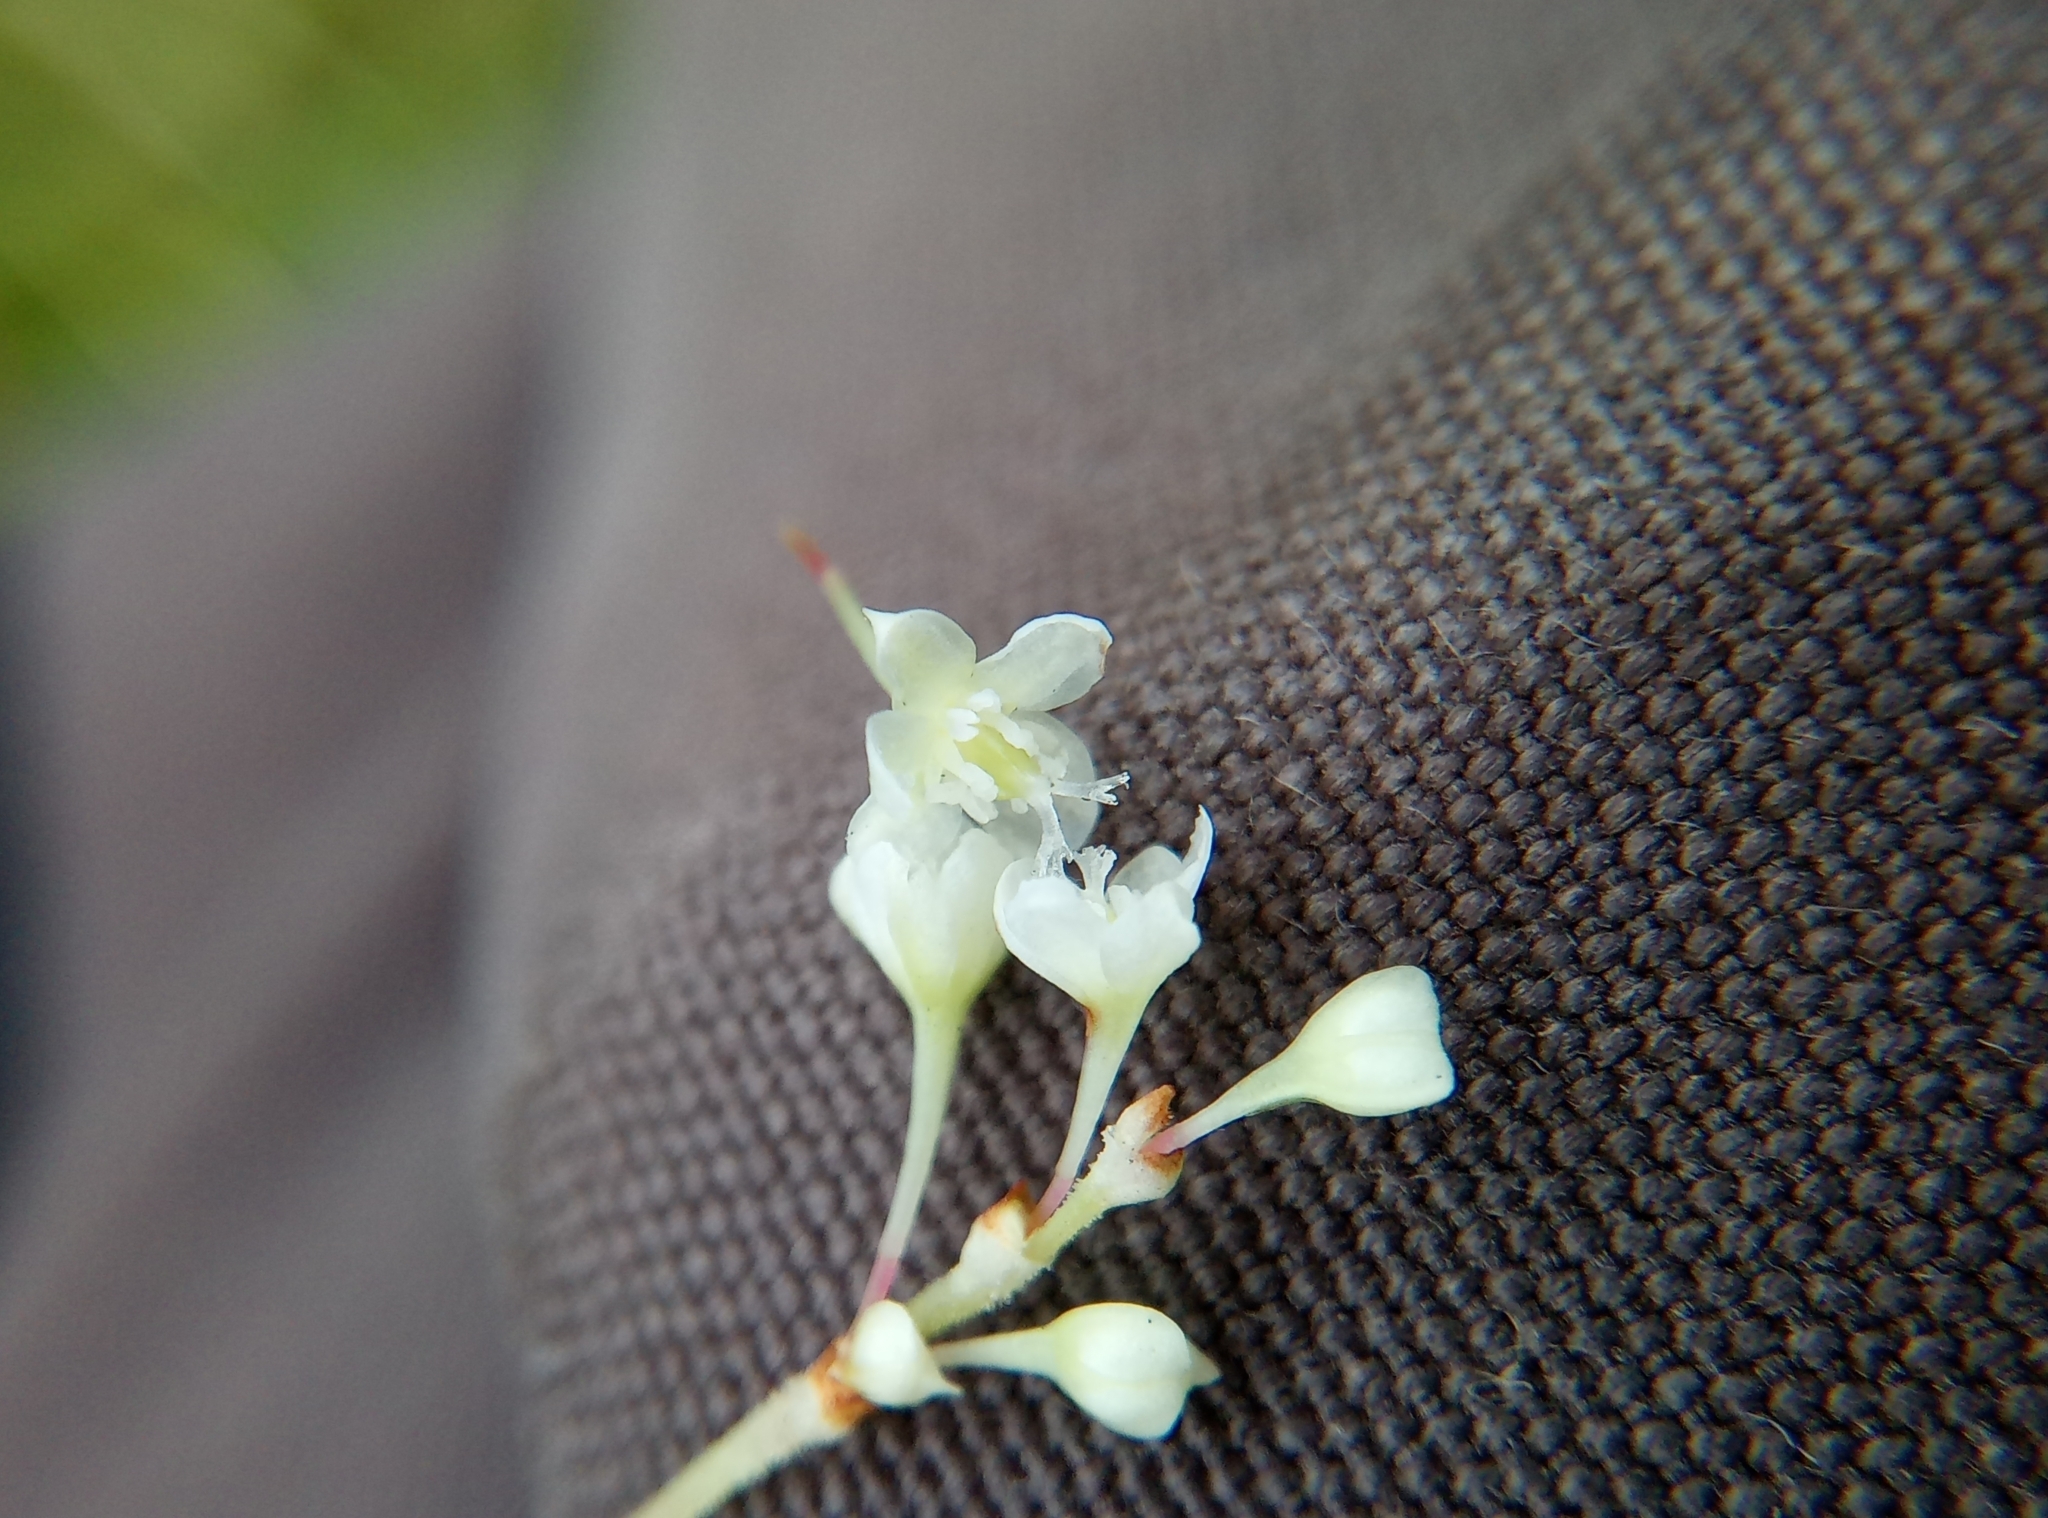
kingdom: Plantae
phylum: Tracheophyta
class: Magnoliopsida
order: Caryophyllales
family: Polygonaceae
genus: Reynoutria
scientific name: Reynoutria japonica
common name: Japanese knotweed
